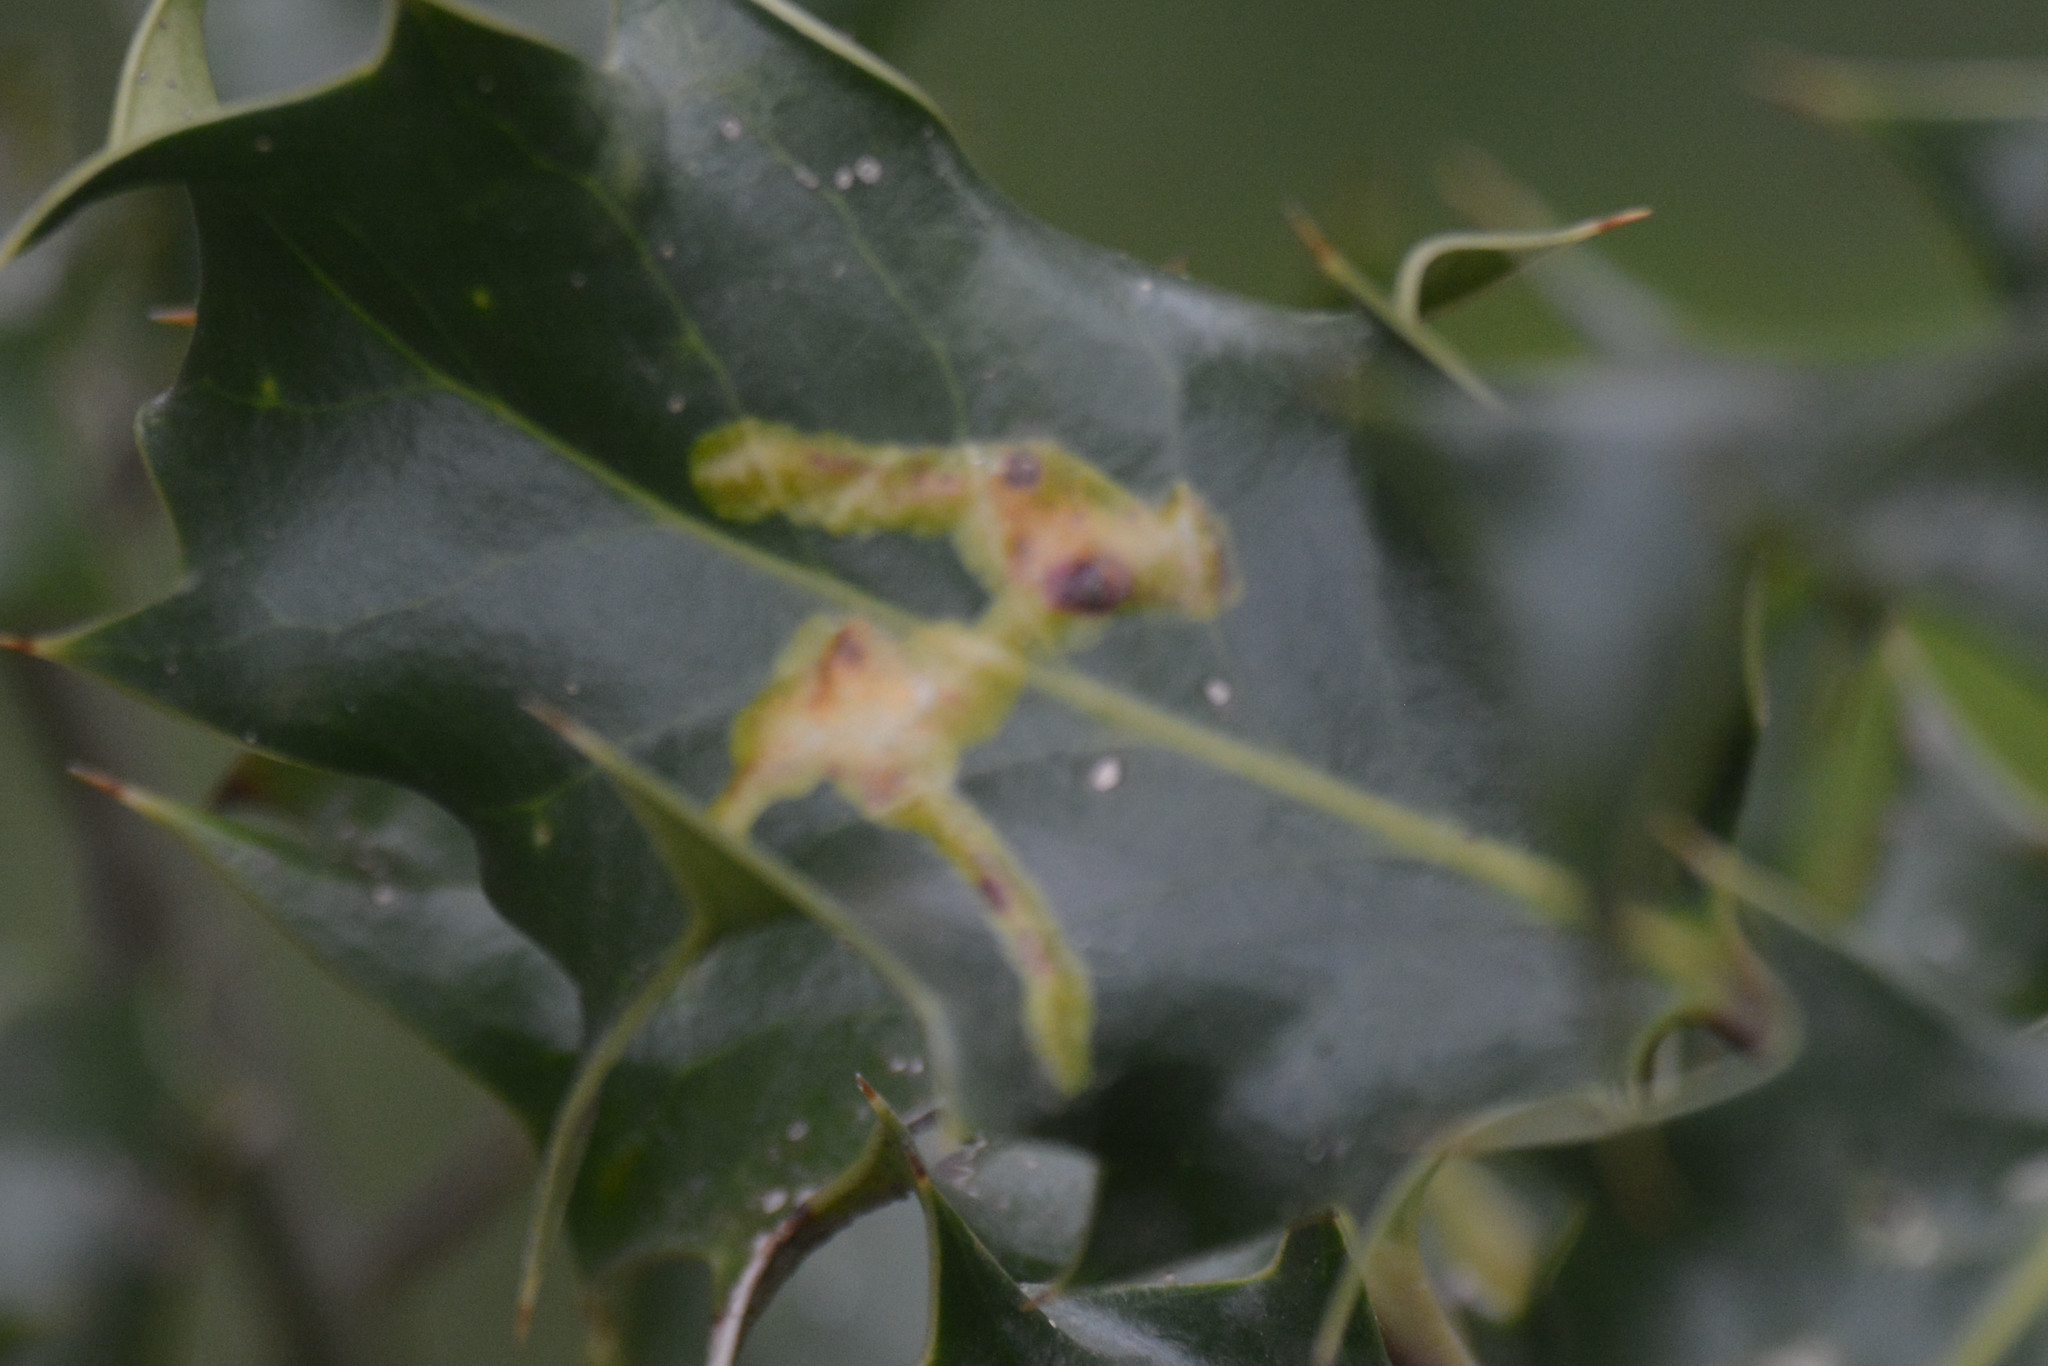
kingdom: Animalia
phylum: Arthropoda
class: Insecta
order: Diptera
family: Agromyzidae
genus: Phytomyza
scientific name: Phytomyza ilicis
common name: Holly leafminer
